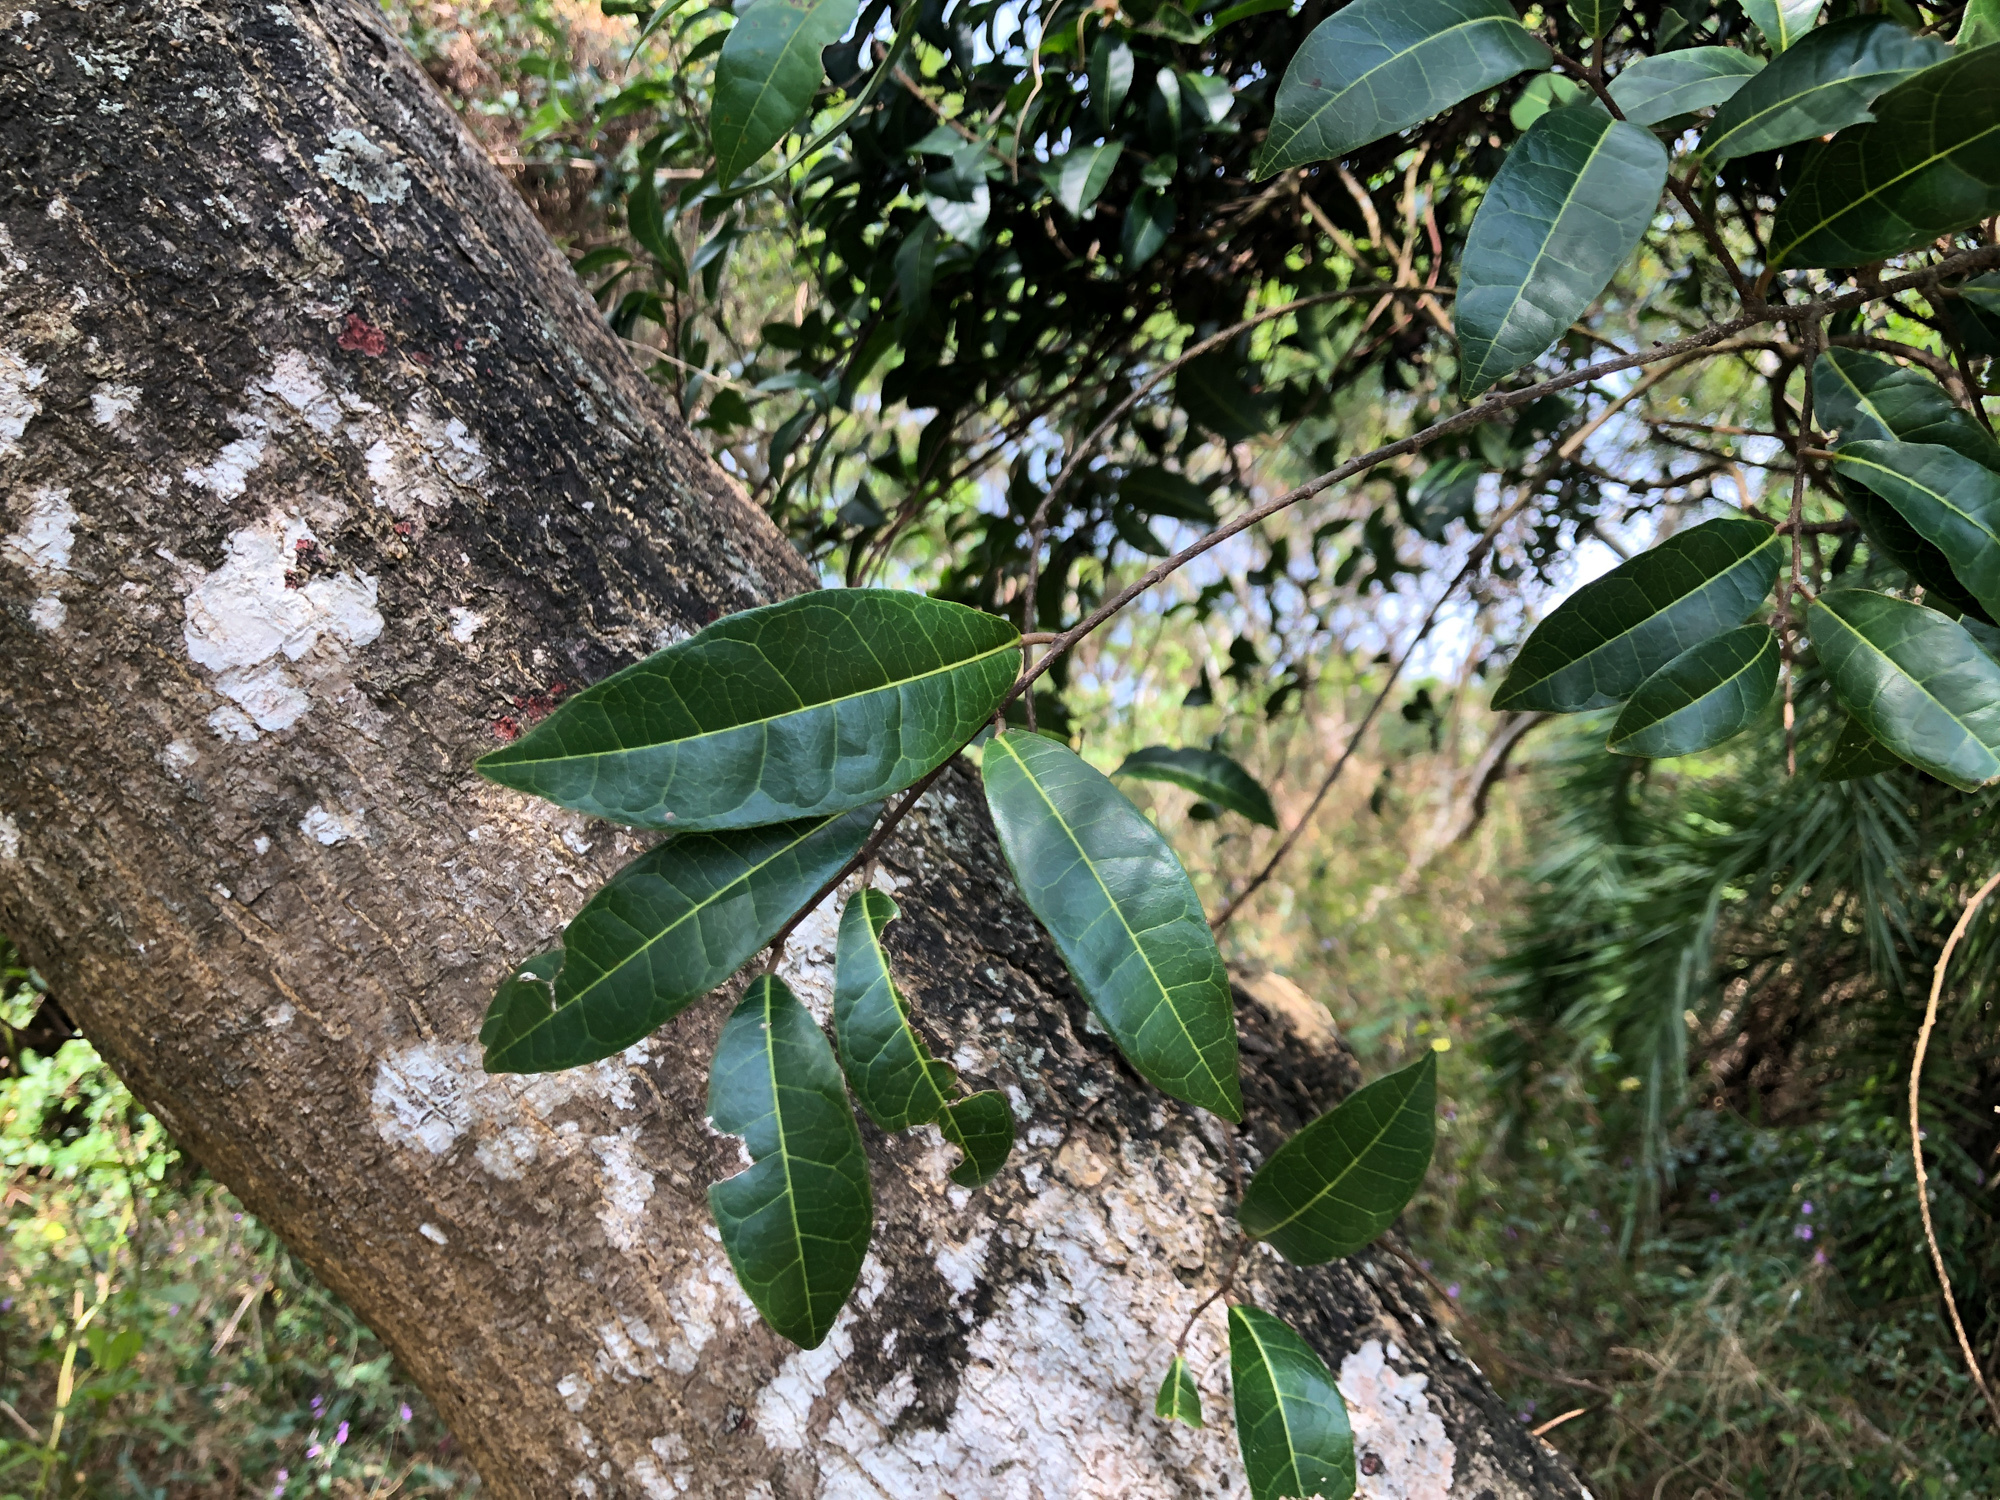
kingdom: Plantae
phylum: Tracheophyta
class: Magnoliopsida
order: Rosales
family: Moraceae
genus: Malaisia
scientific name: Malaisia scandens
